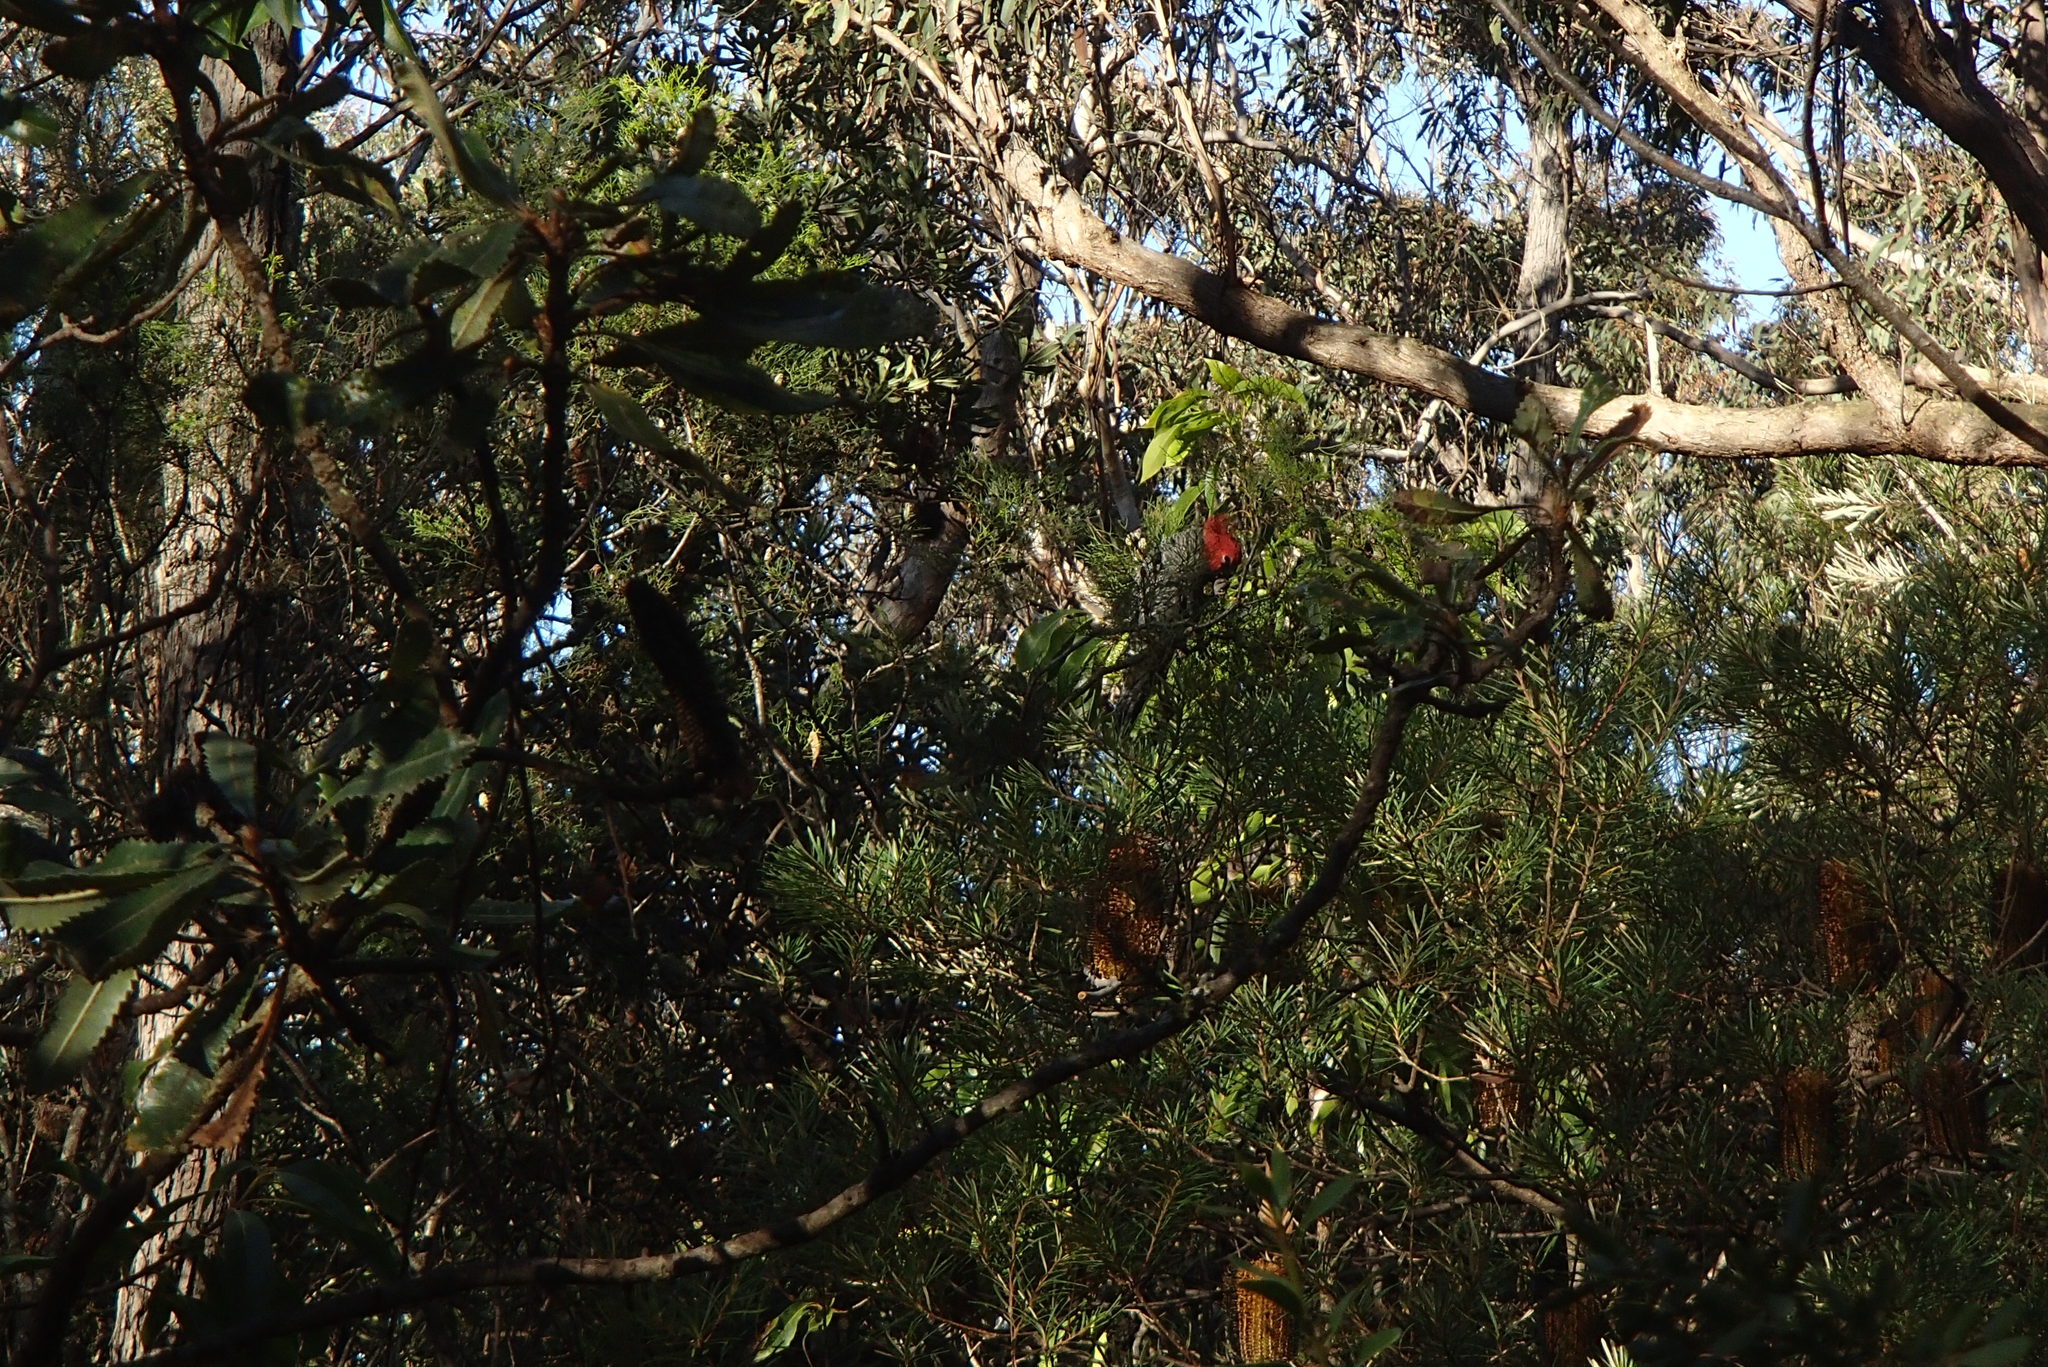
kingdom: Animalia
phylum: Chordata
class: Aves
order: Psittaciformes
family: Psittacidae
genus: Callocephalon
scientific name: Callocephalon fimbriatum
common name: Gang-gang cockatoo
